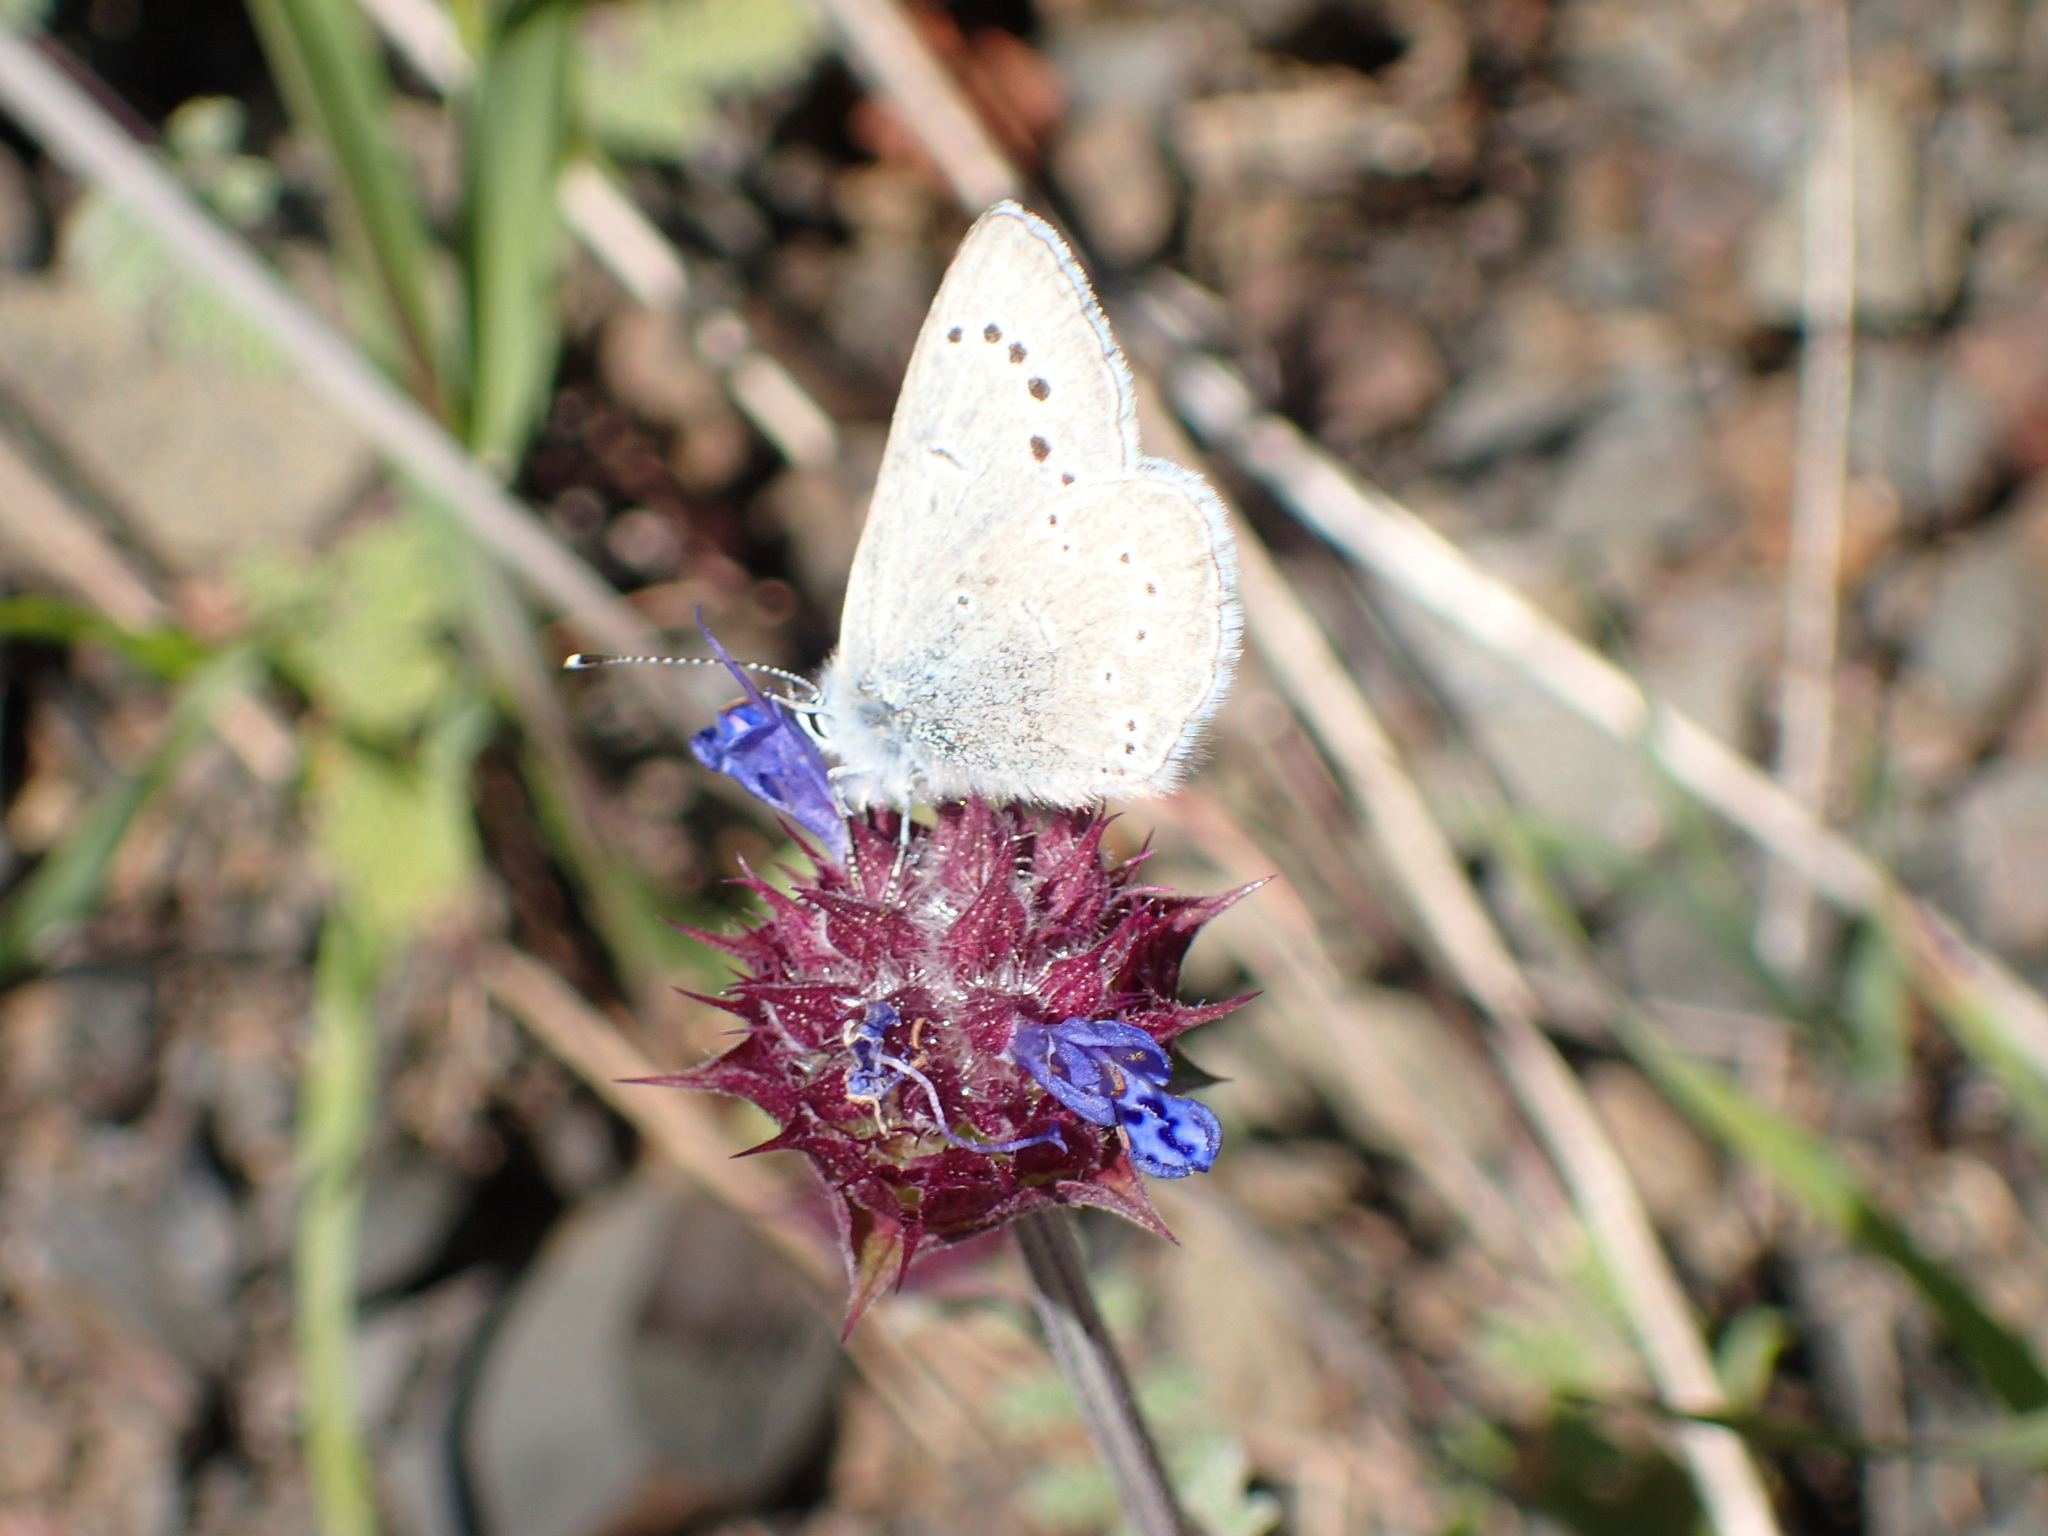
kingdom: Plantae
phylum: Tracheophyta
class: Magnoliopsida
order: Lamiales
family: Lamiaceae
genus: Salvia
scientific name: Salvia columbariae
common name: Chia
